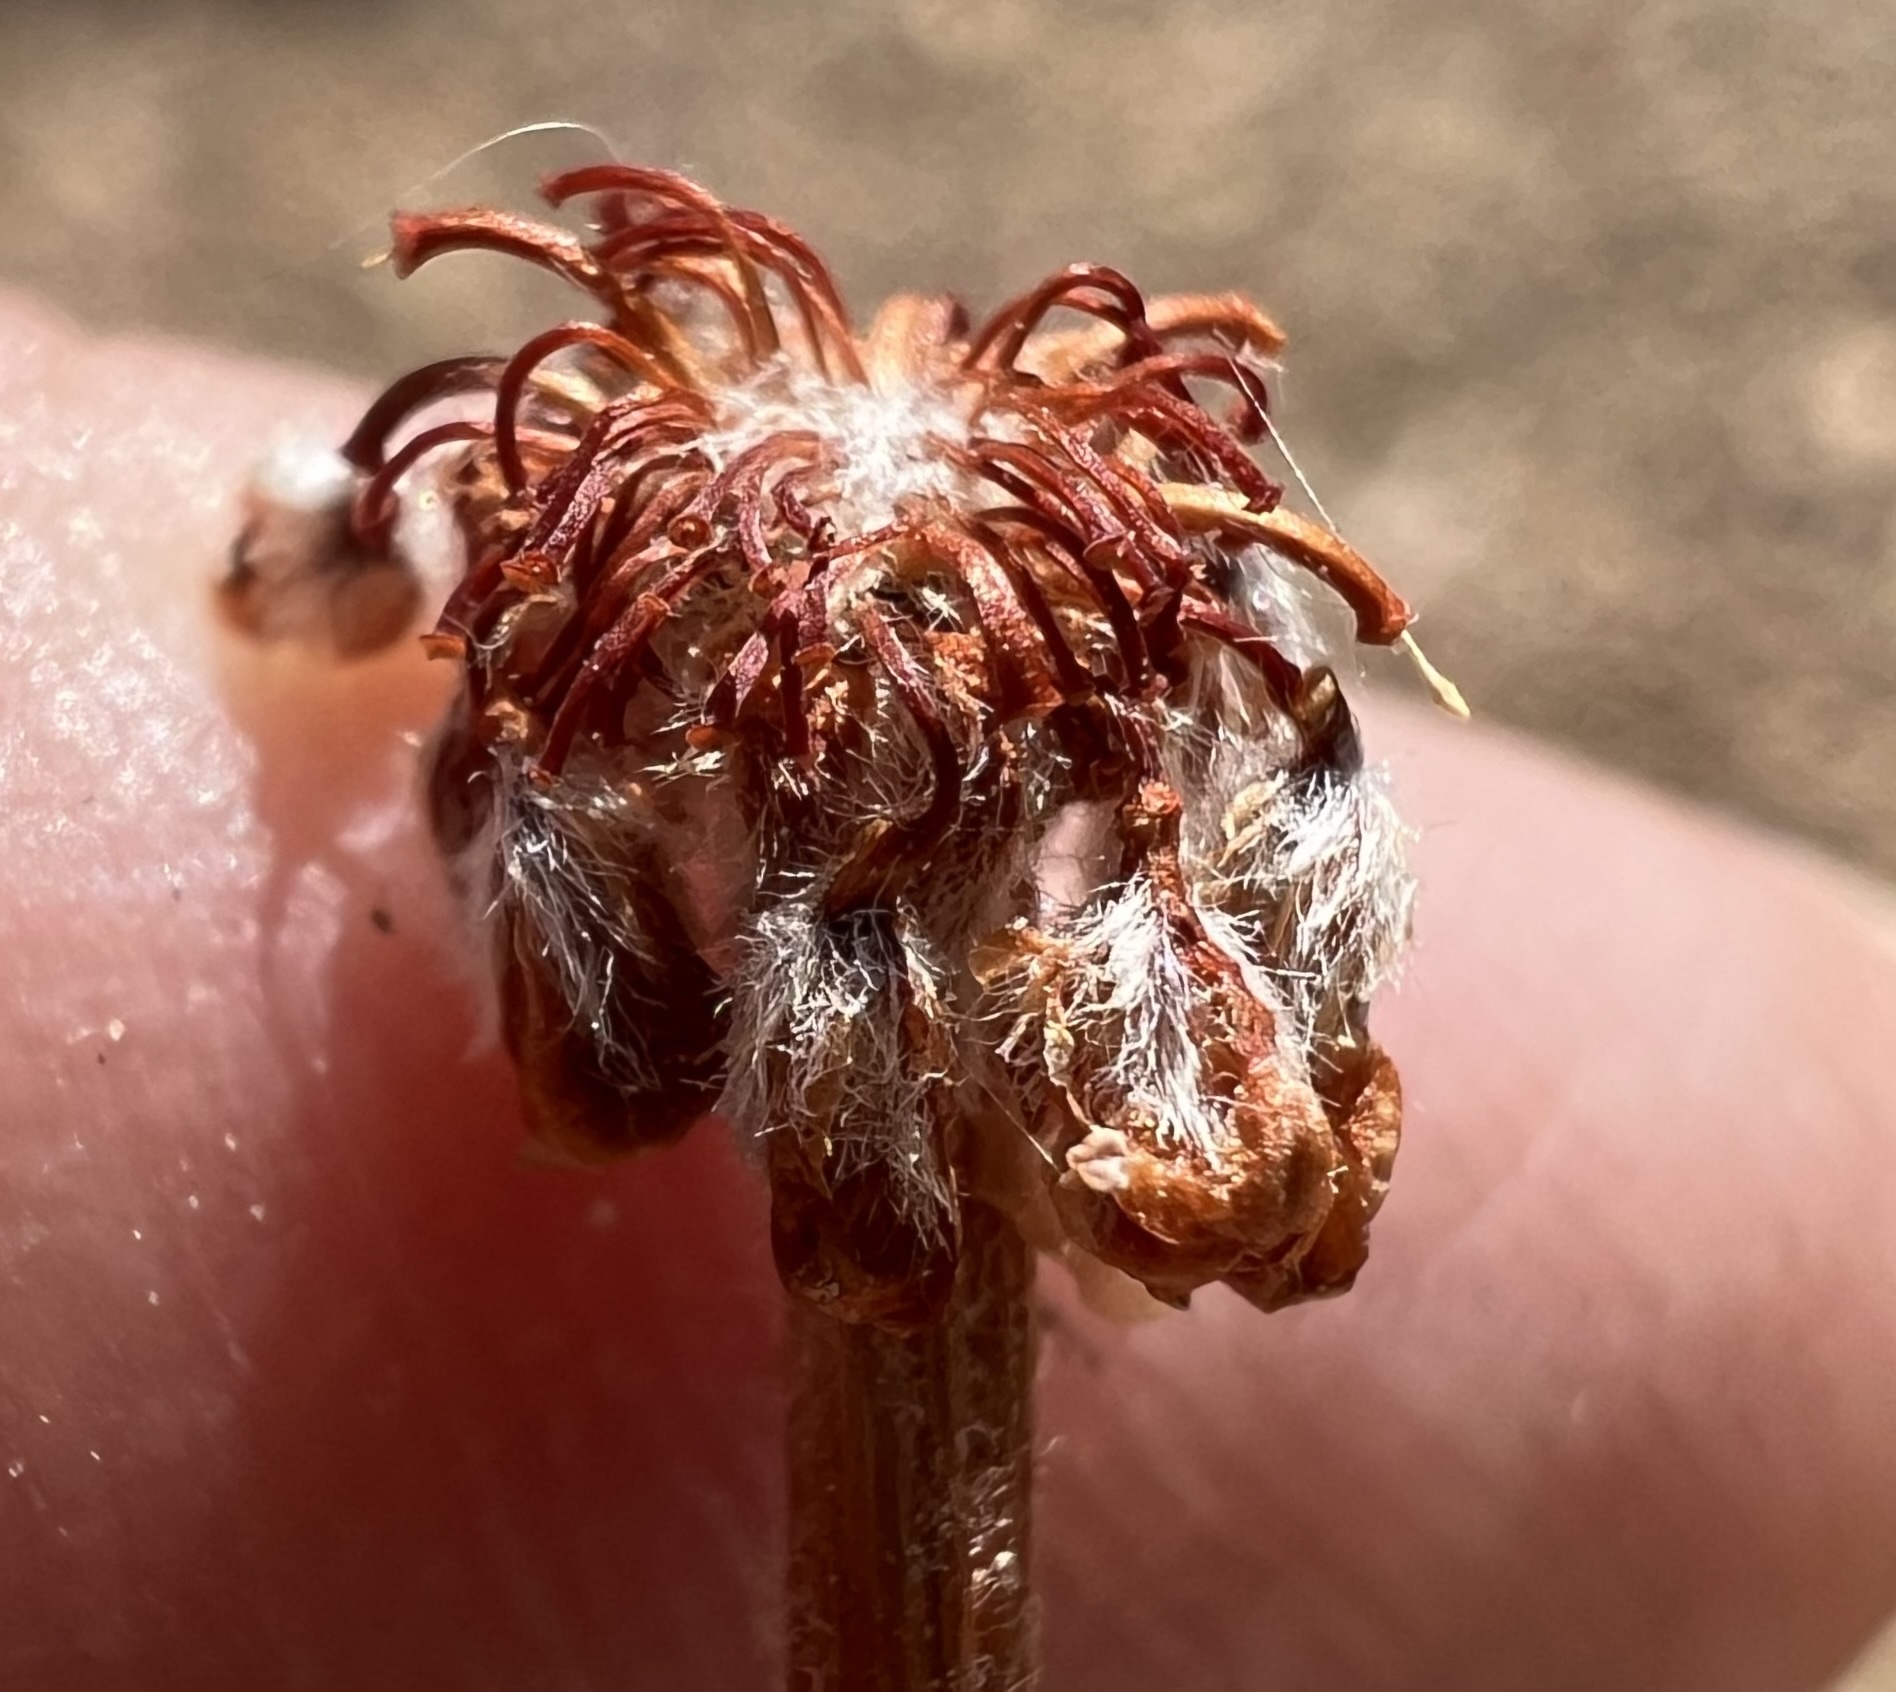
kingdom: Plantae
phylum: Tracheophyta
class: Magnoliopsida
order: Caryophyllales
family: Polygonaceae
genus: Eriogonum
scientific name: Eriogonum caespitosum
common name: Matted wild buckwheat
